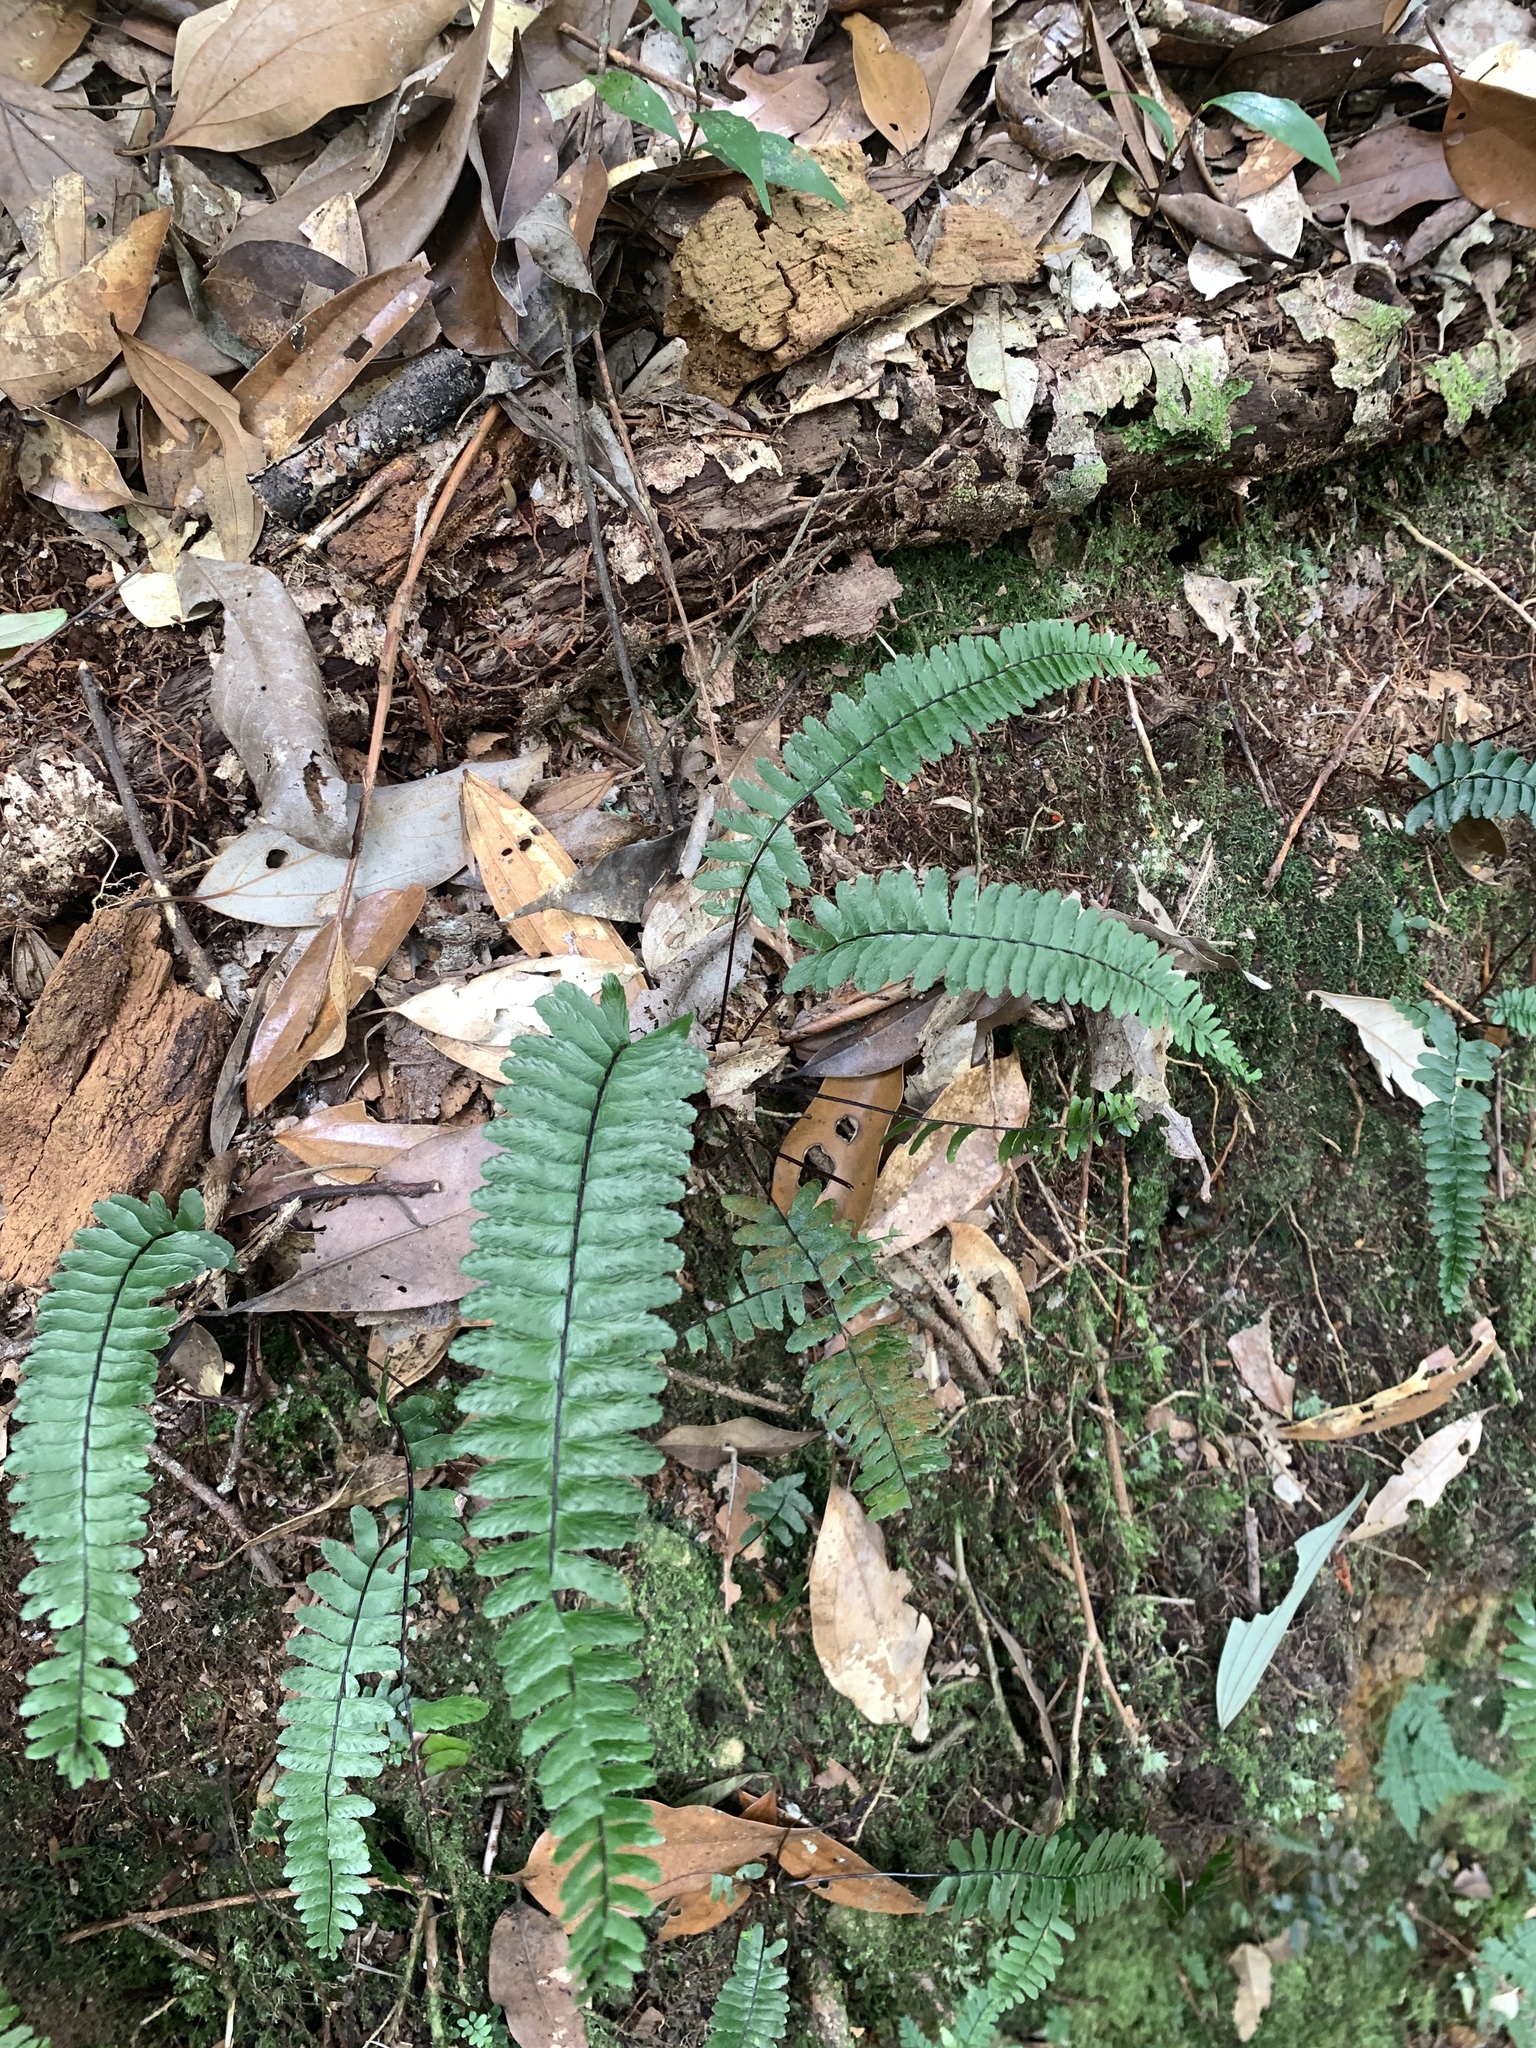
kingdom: Plantae
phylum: Tracheophyta
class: Polypodiopsida
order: Polypodiales
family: Aspleniaceae
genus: Asplenium
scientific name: Asplenium normale
